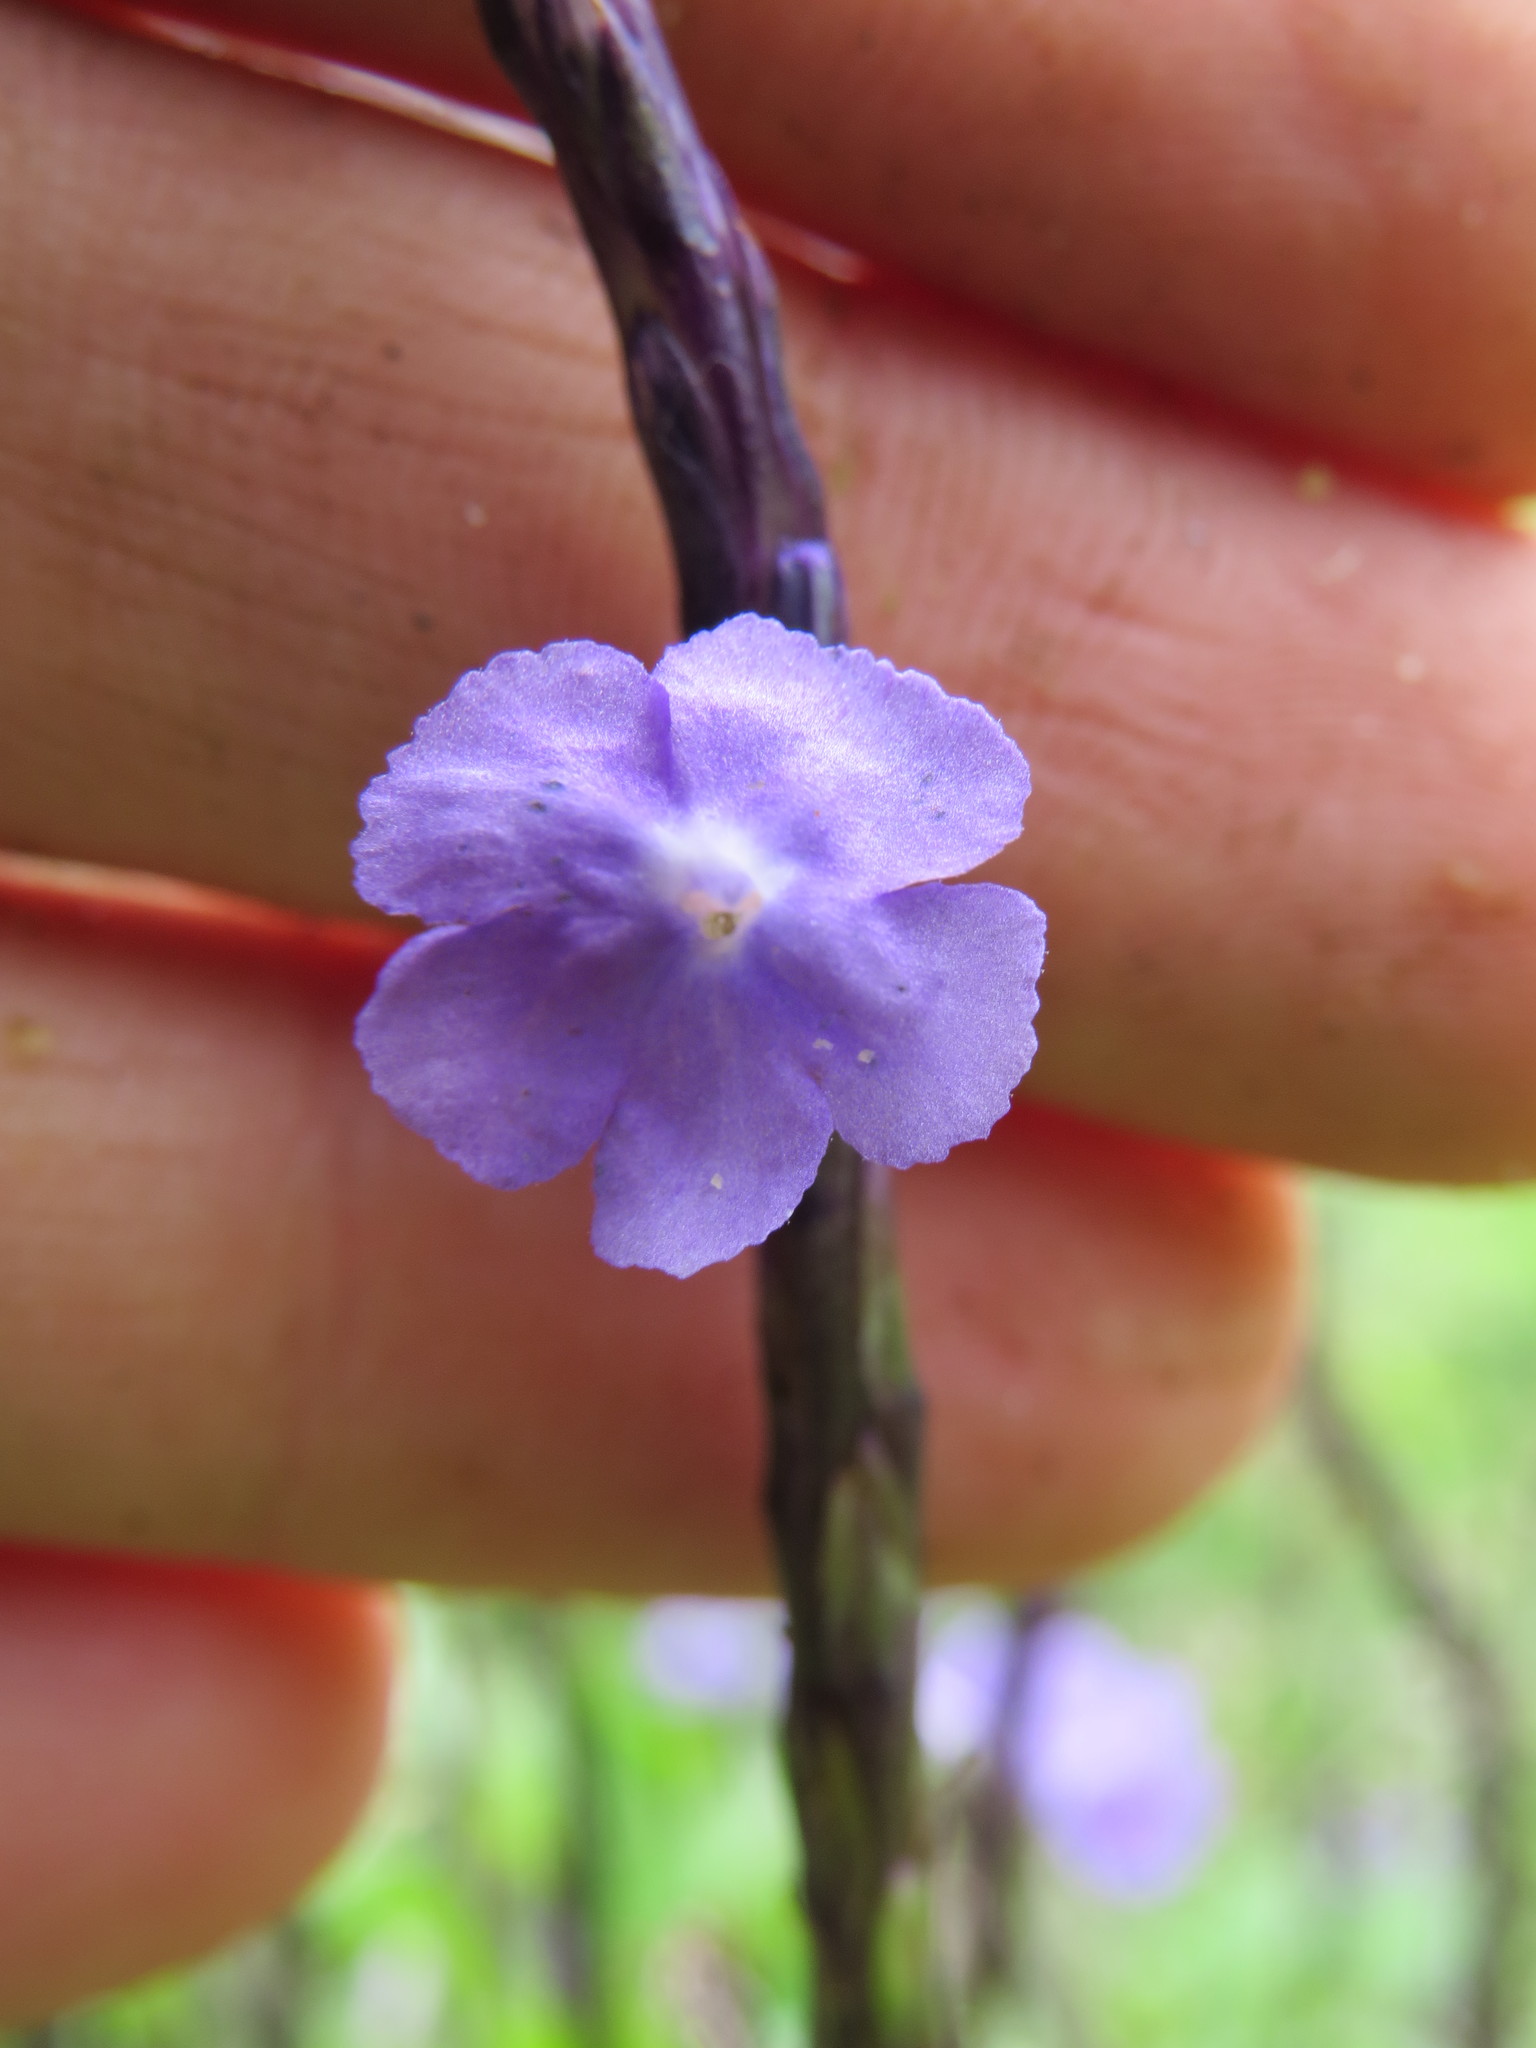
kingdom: Plantae
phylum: Tracheophyta
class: Magnoliopsida
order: Lamiales
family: Verbenaceae
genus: Stachytarpheta
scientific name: Stachytarpheta cayennensis
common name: Cayenne porterweed
